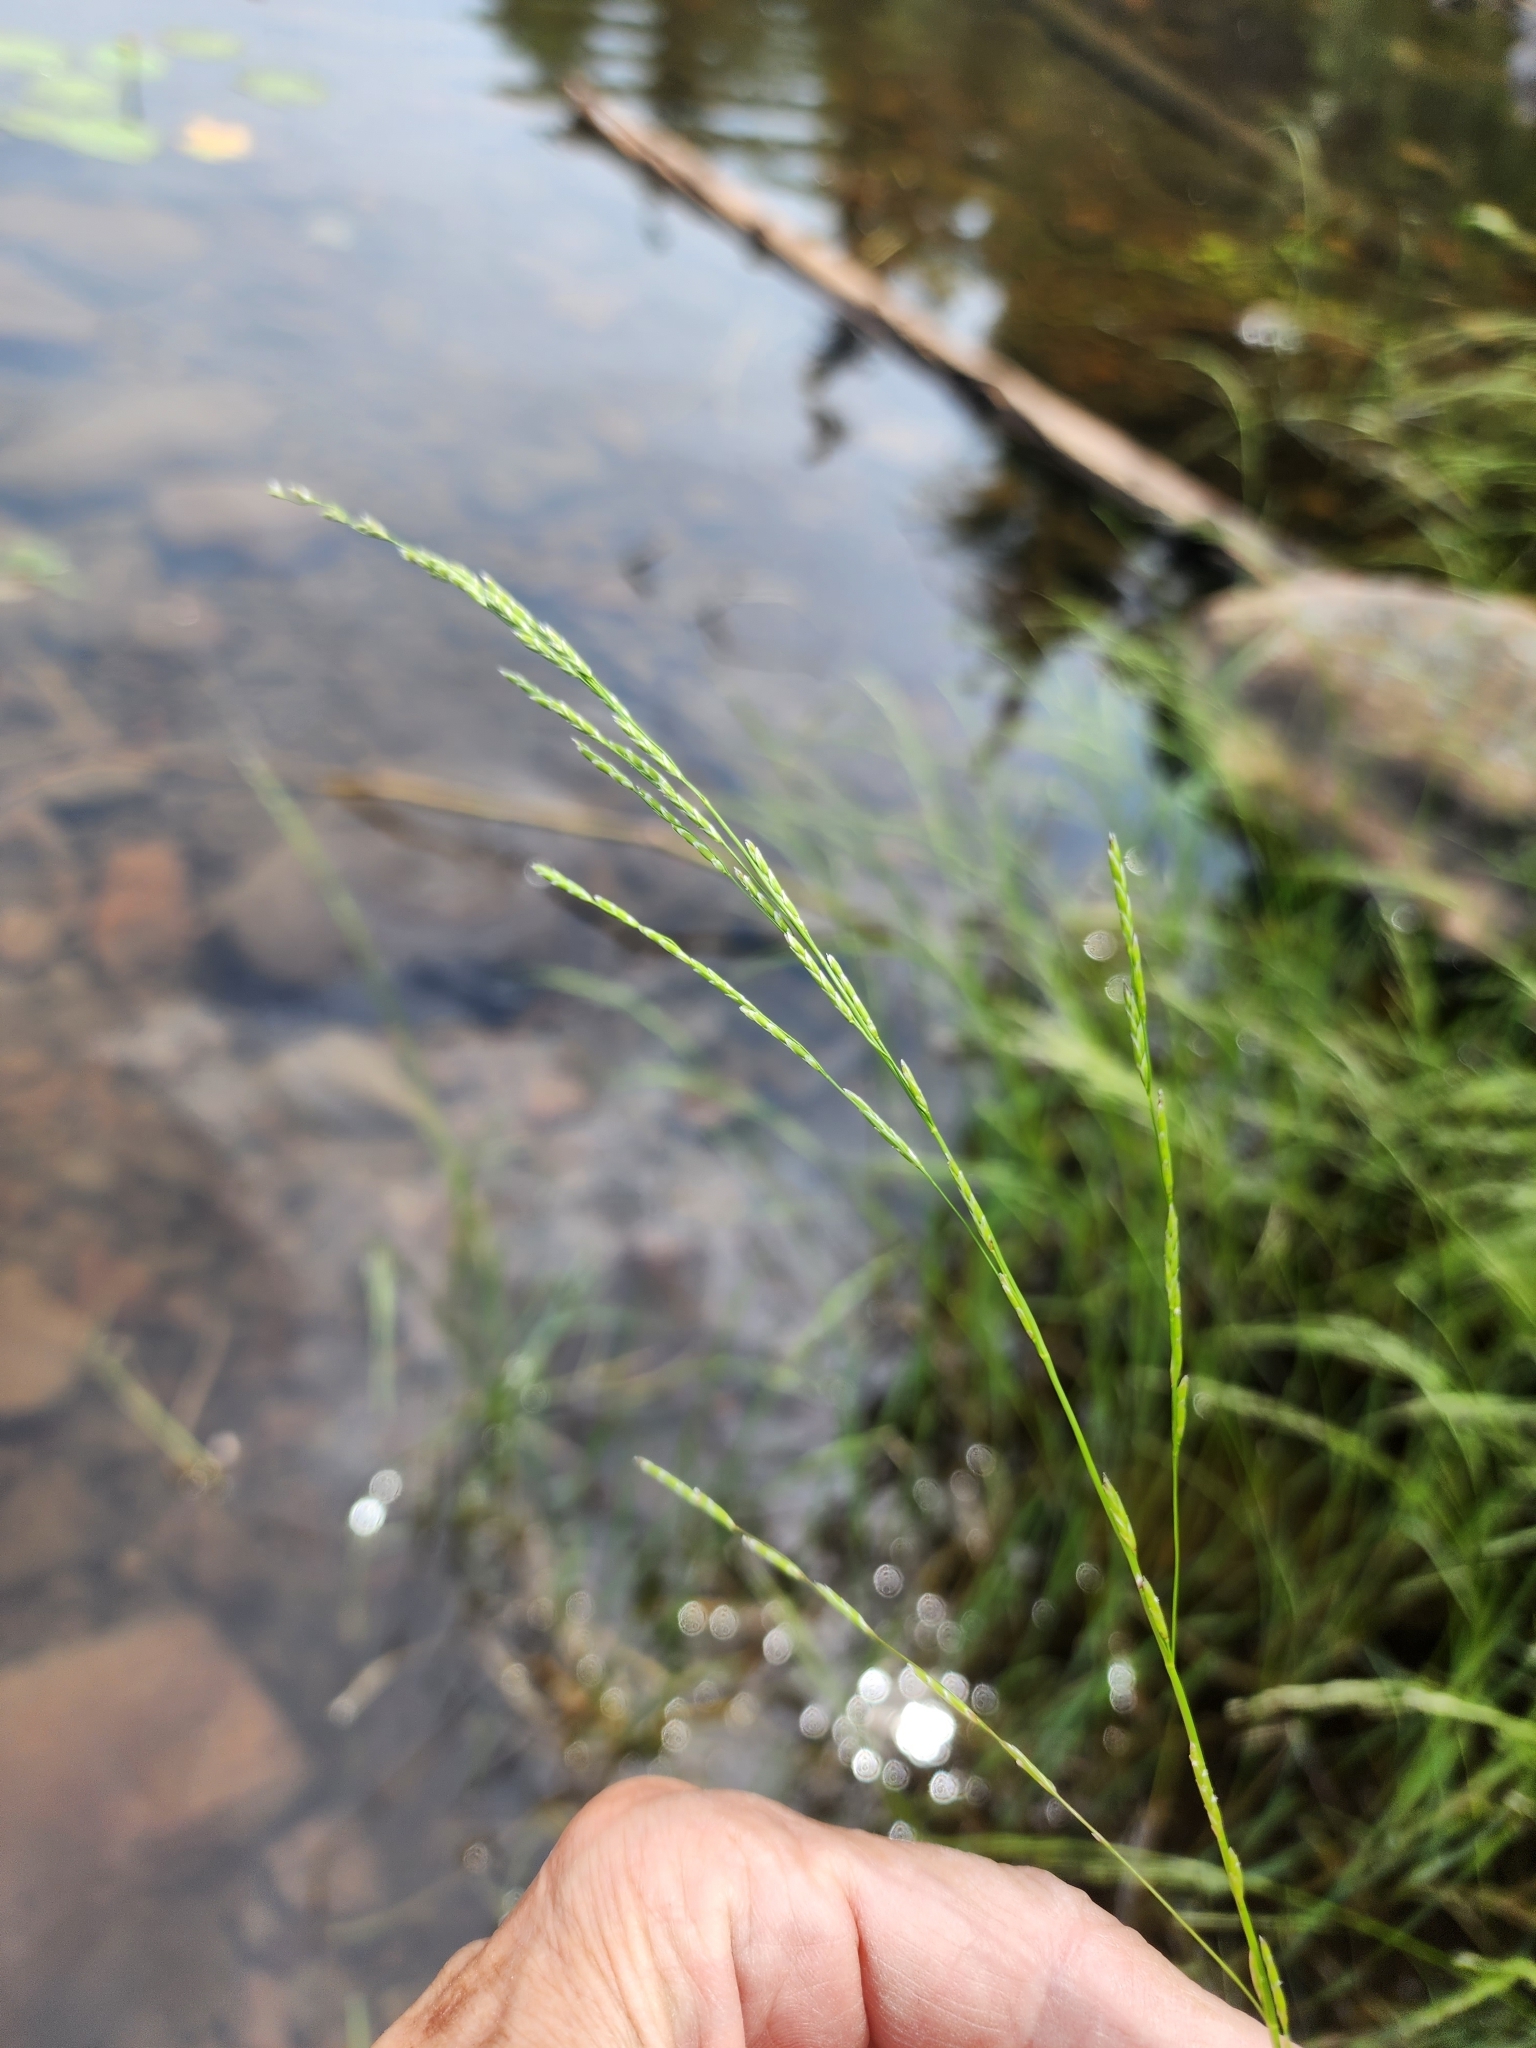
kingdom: Plantae
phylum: Tracheophyta
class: Liliopsida
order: Poales
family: Poaceae
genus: Glyceria
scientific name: Glyceria borealis
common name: Boreal glyceria
